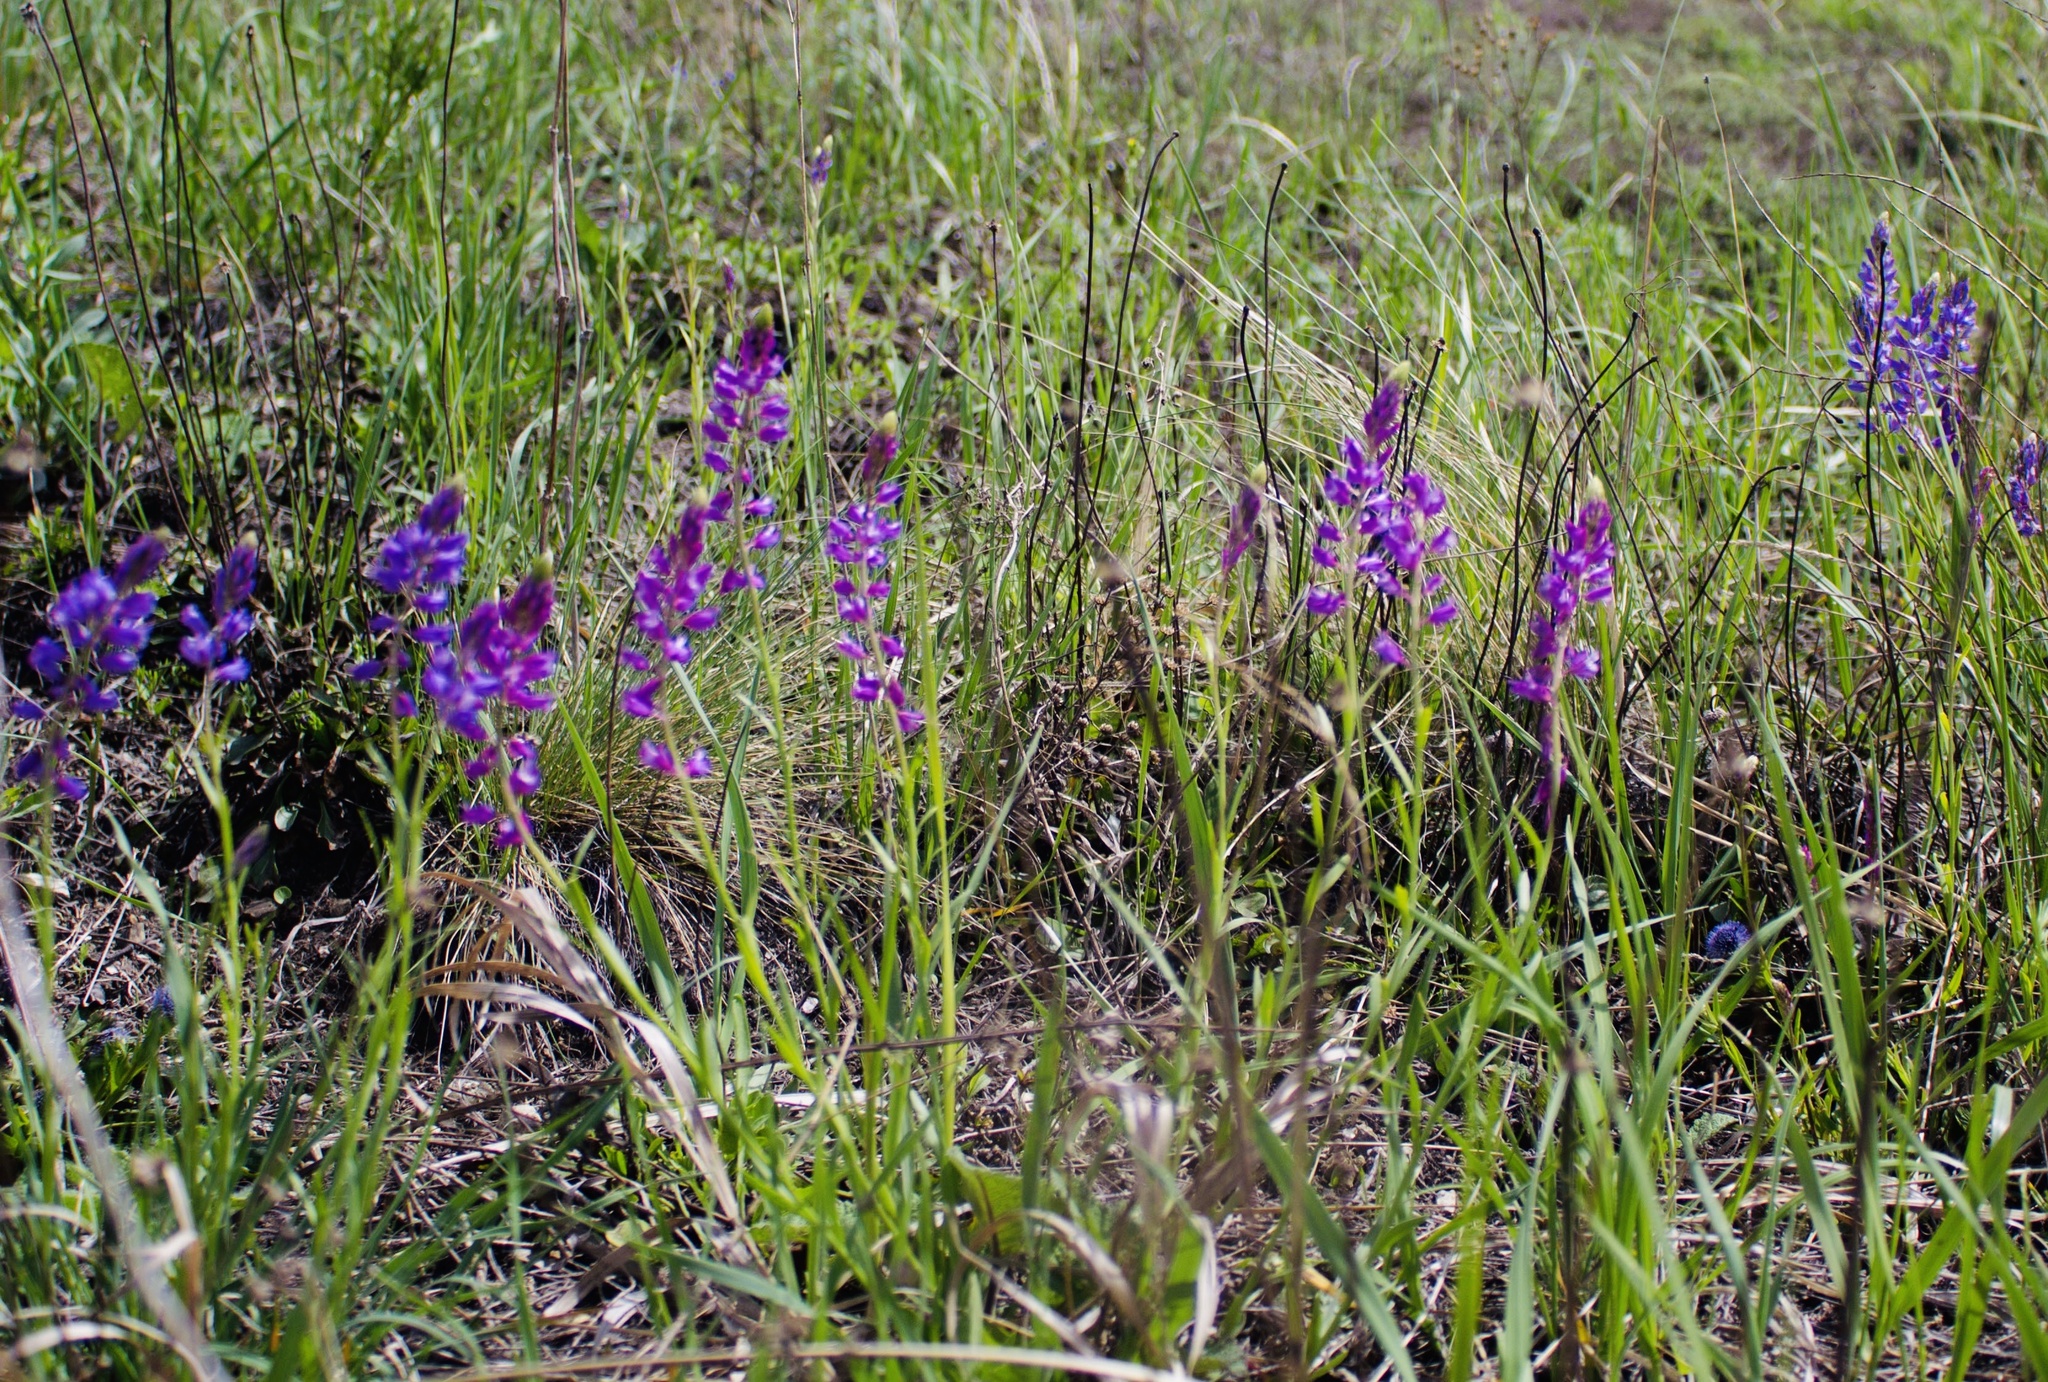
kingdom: Plantae
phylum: Tracheophyta
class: Magnoliopsida
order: Fabales
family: Polygalaceae
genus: Polygala
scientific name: Polygala comosa
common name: Tufted milkwort
